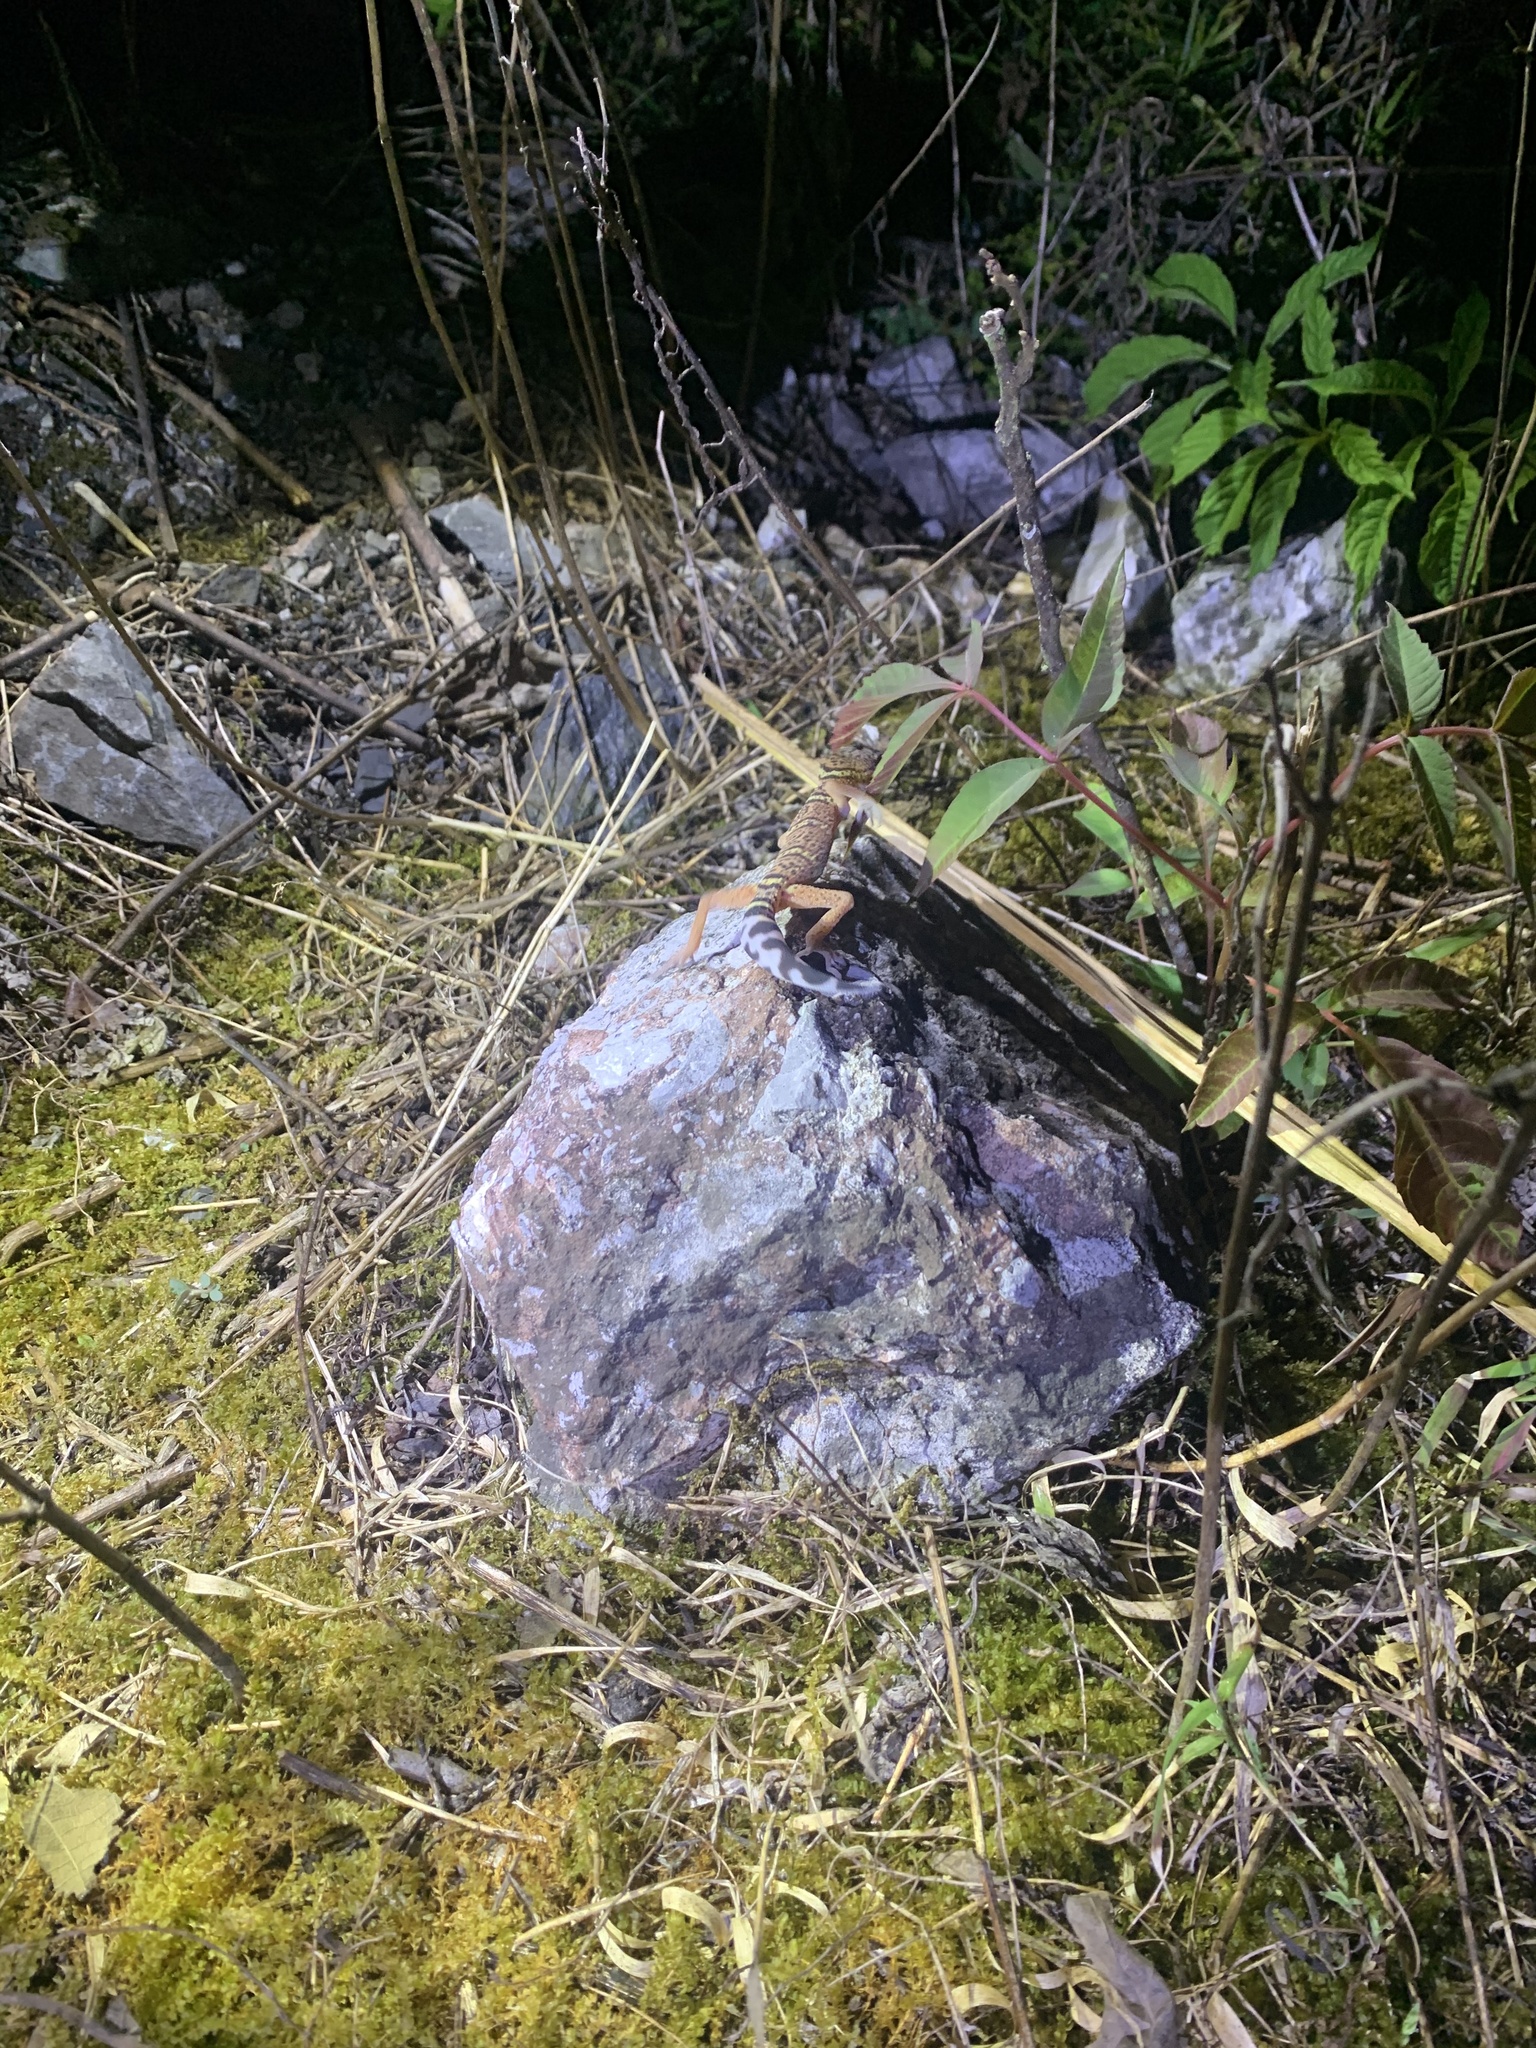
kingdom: Animalia
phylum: Chordata
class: Squamata
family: Eublepharidae
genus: Goniurosaurus
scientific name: Goniurosaurus varius
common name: Nanling leopard gecko]
